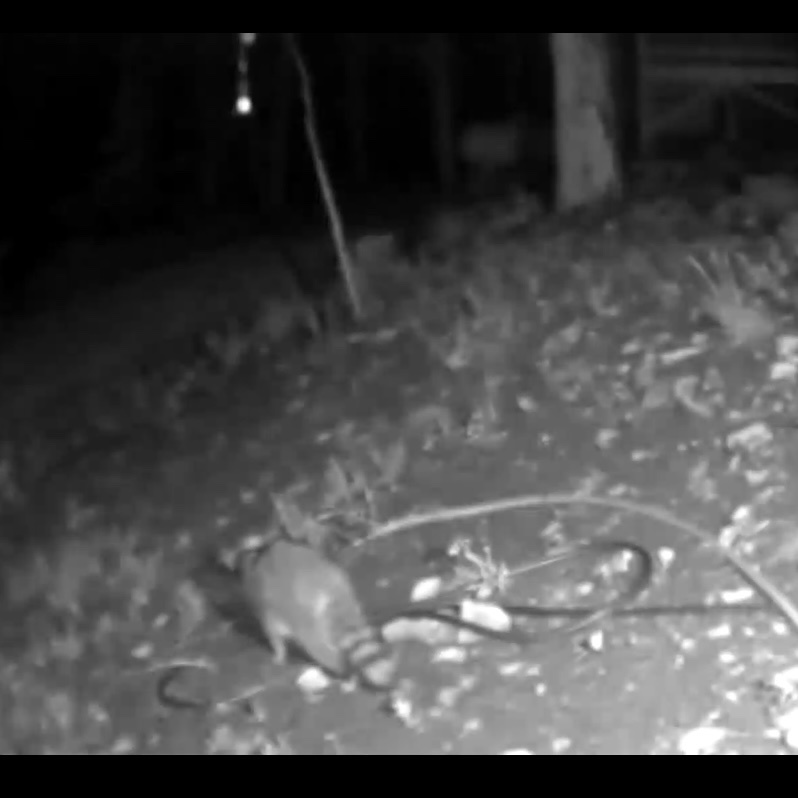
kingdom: Animalia
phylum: Chordata
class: Mammalia
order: Carnivora
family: Procyonidae
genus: Procyon
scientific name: Procyon lotor
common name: Raccoon
